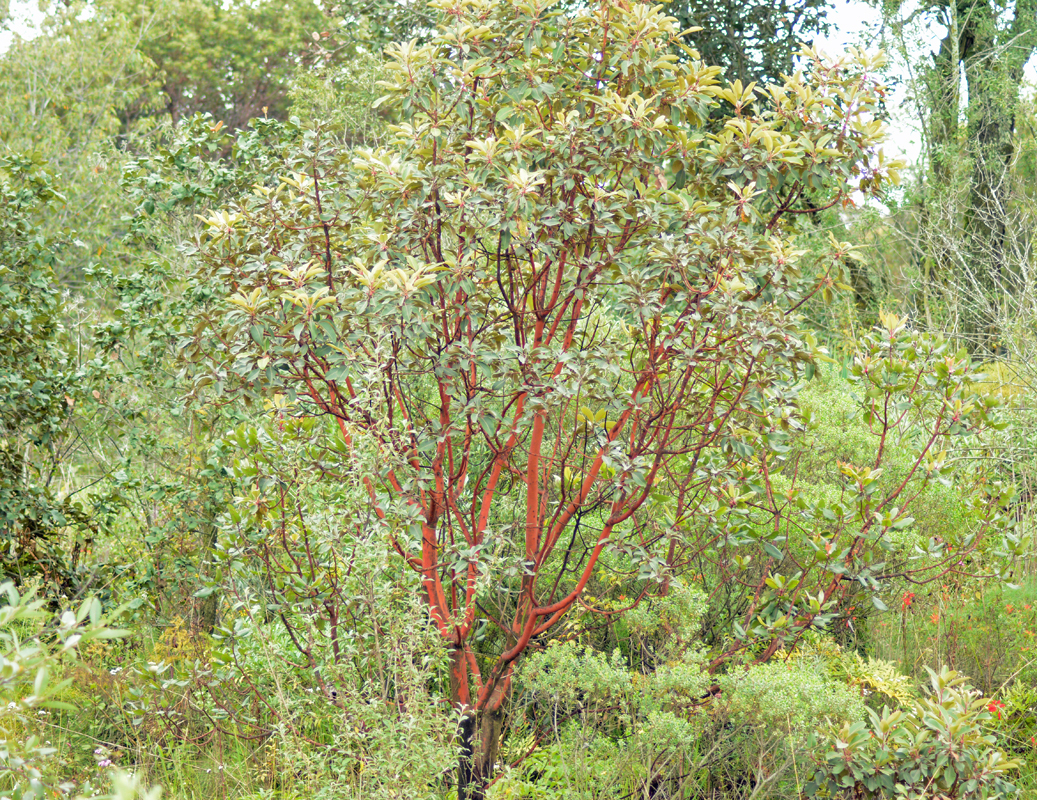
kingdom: Plantae
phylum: Tracheophyta
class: Magnoliopsida
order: Ericales
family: Ericaceae
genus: Arbutus
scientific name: Arbutus xalapensis
